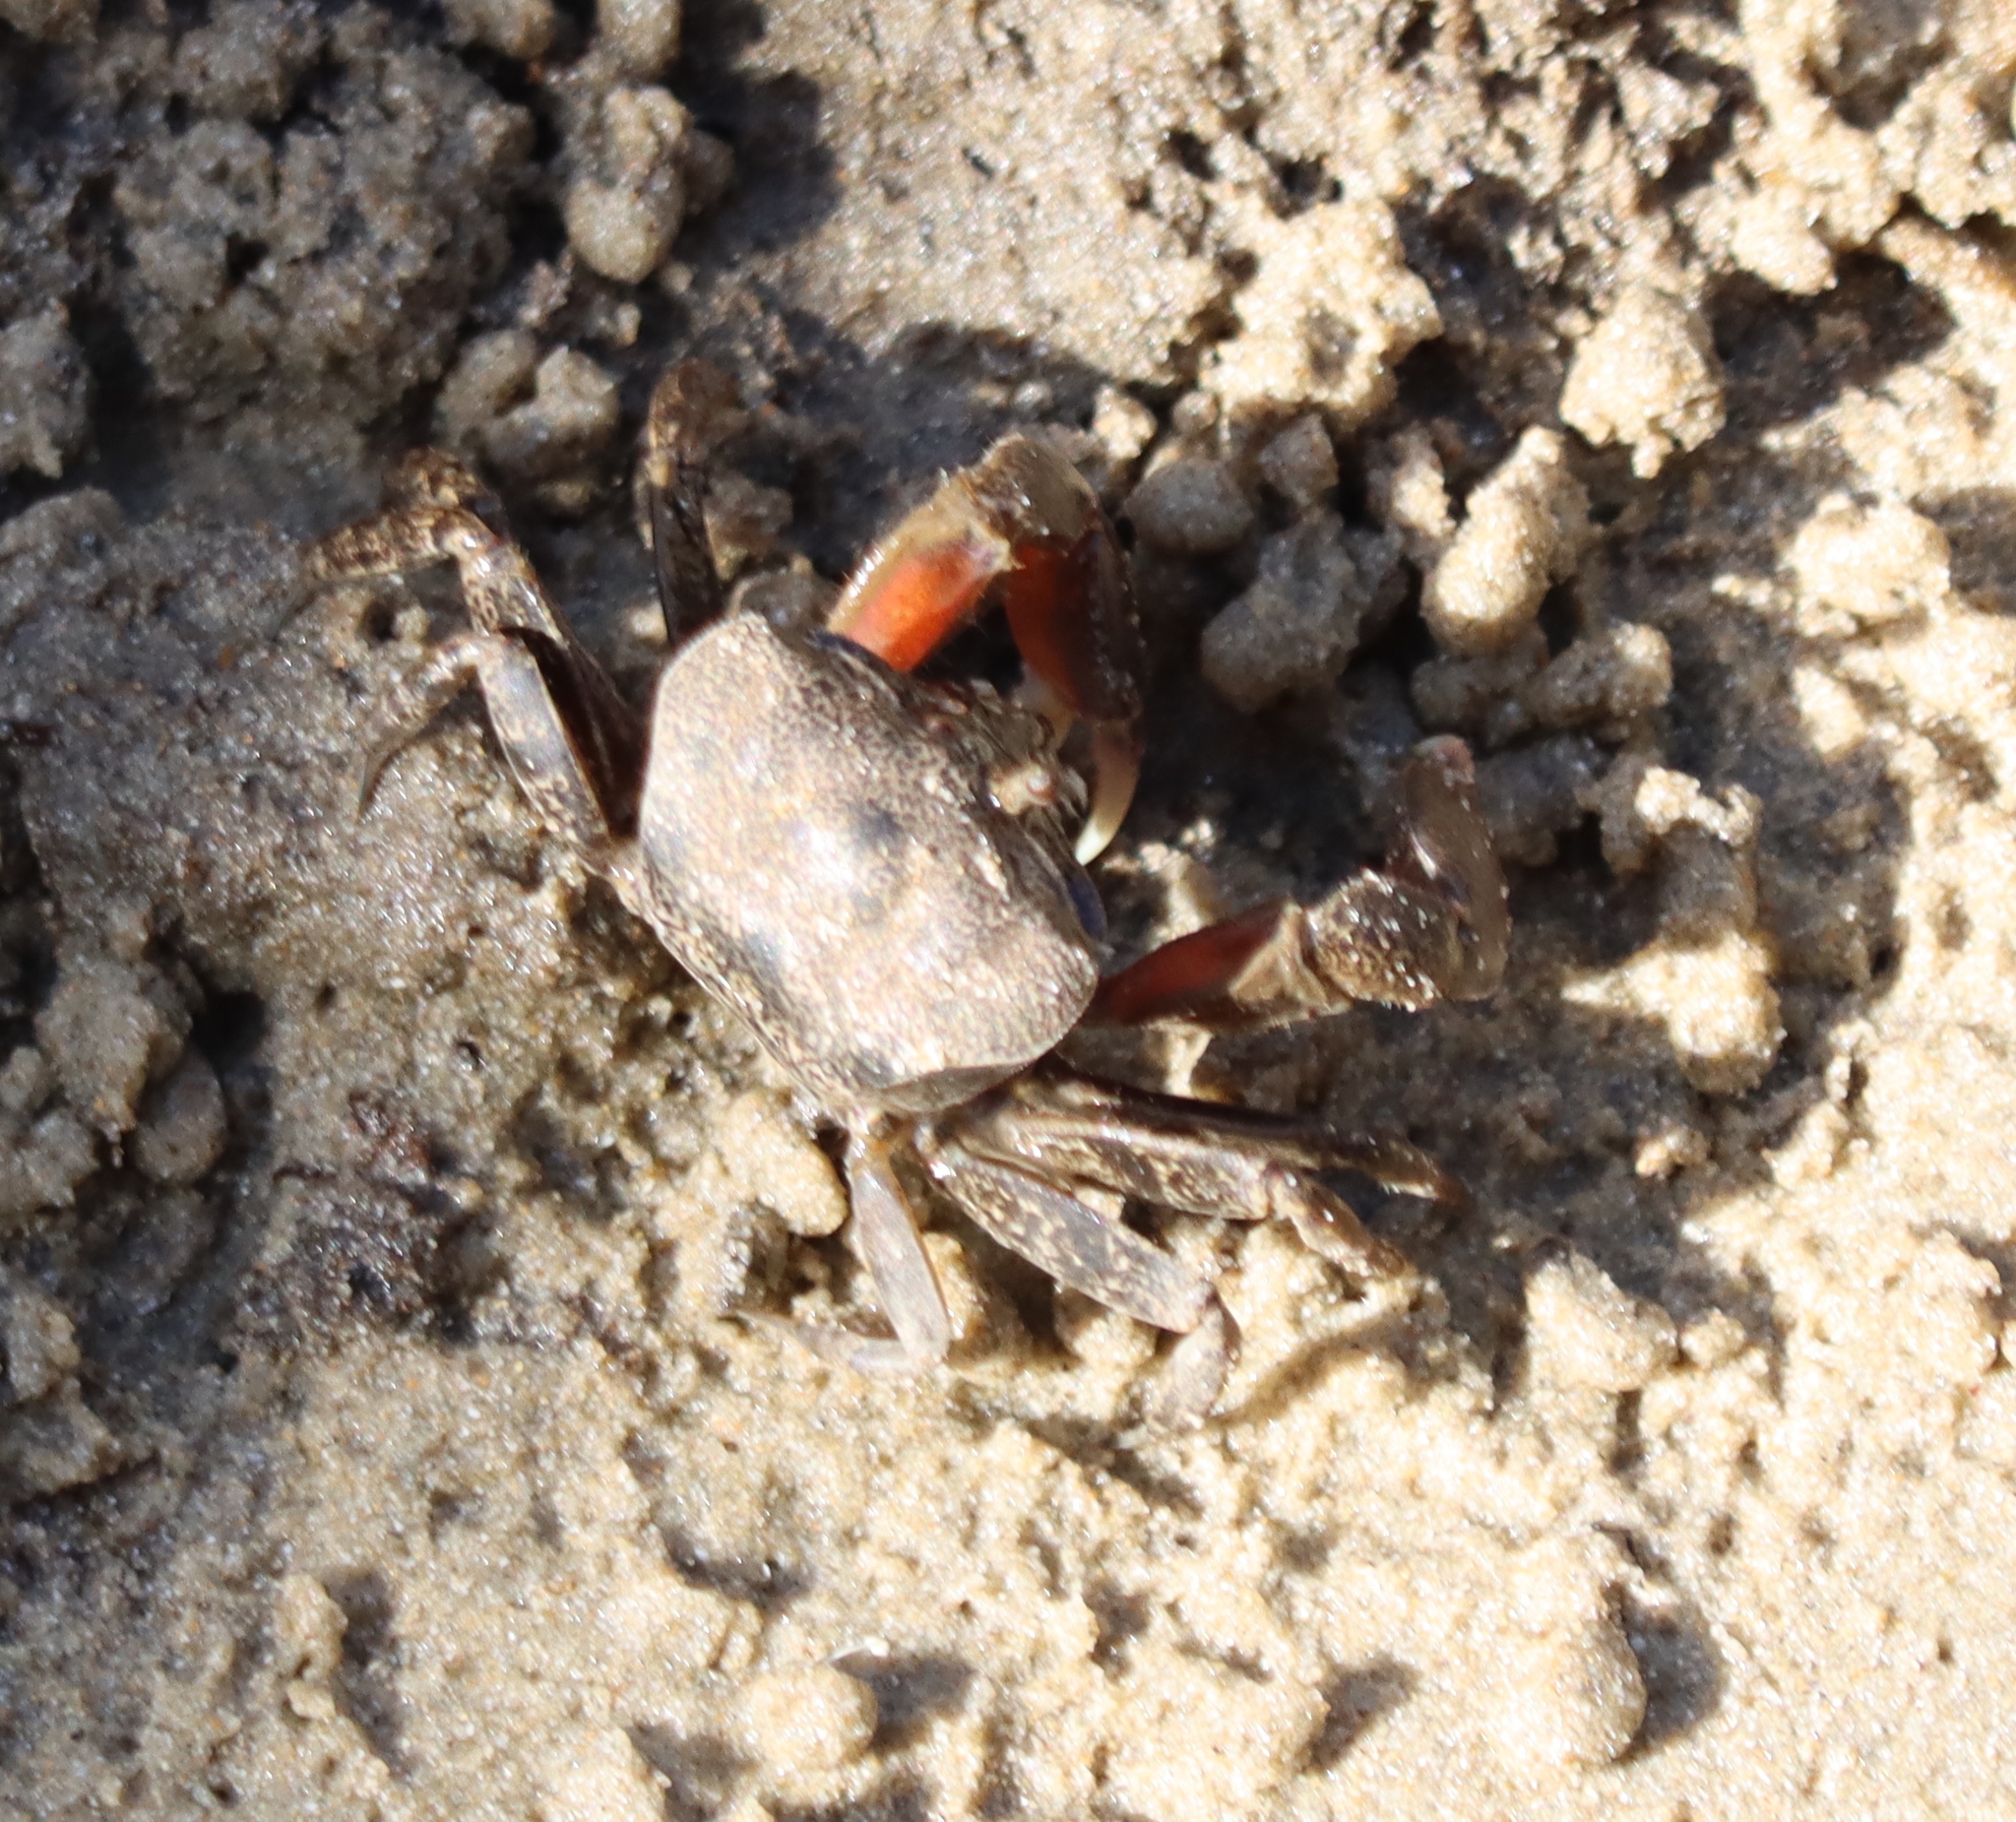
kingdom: Animalia
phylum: Arthropoda
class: Malacostraca
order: Decapoda
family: Heloeciidae
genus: Heloecius
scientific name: Heloecius cordiformis
